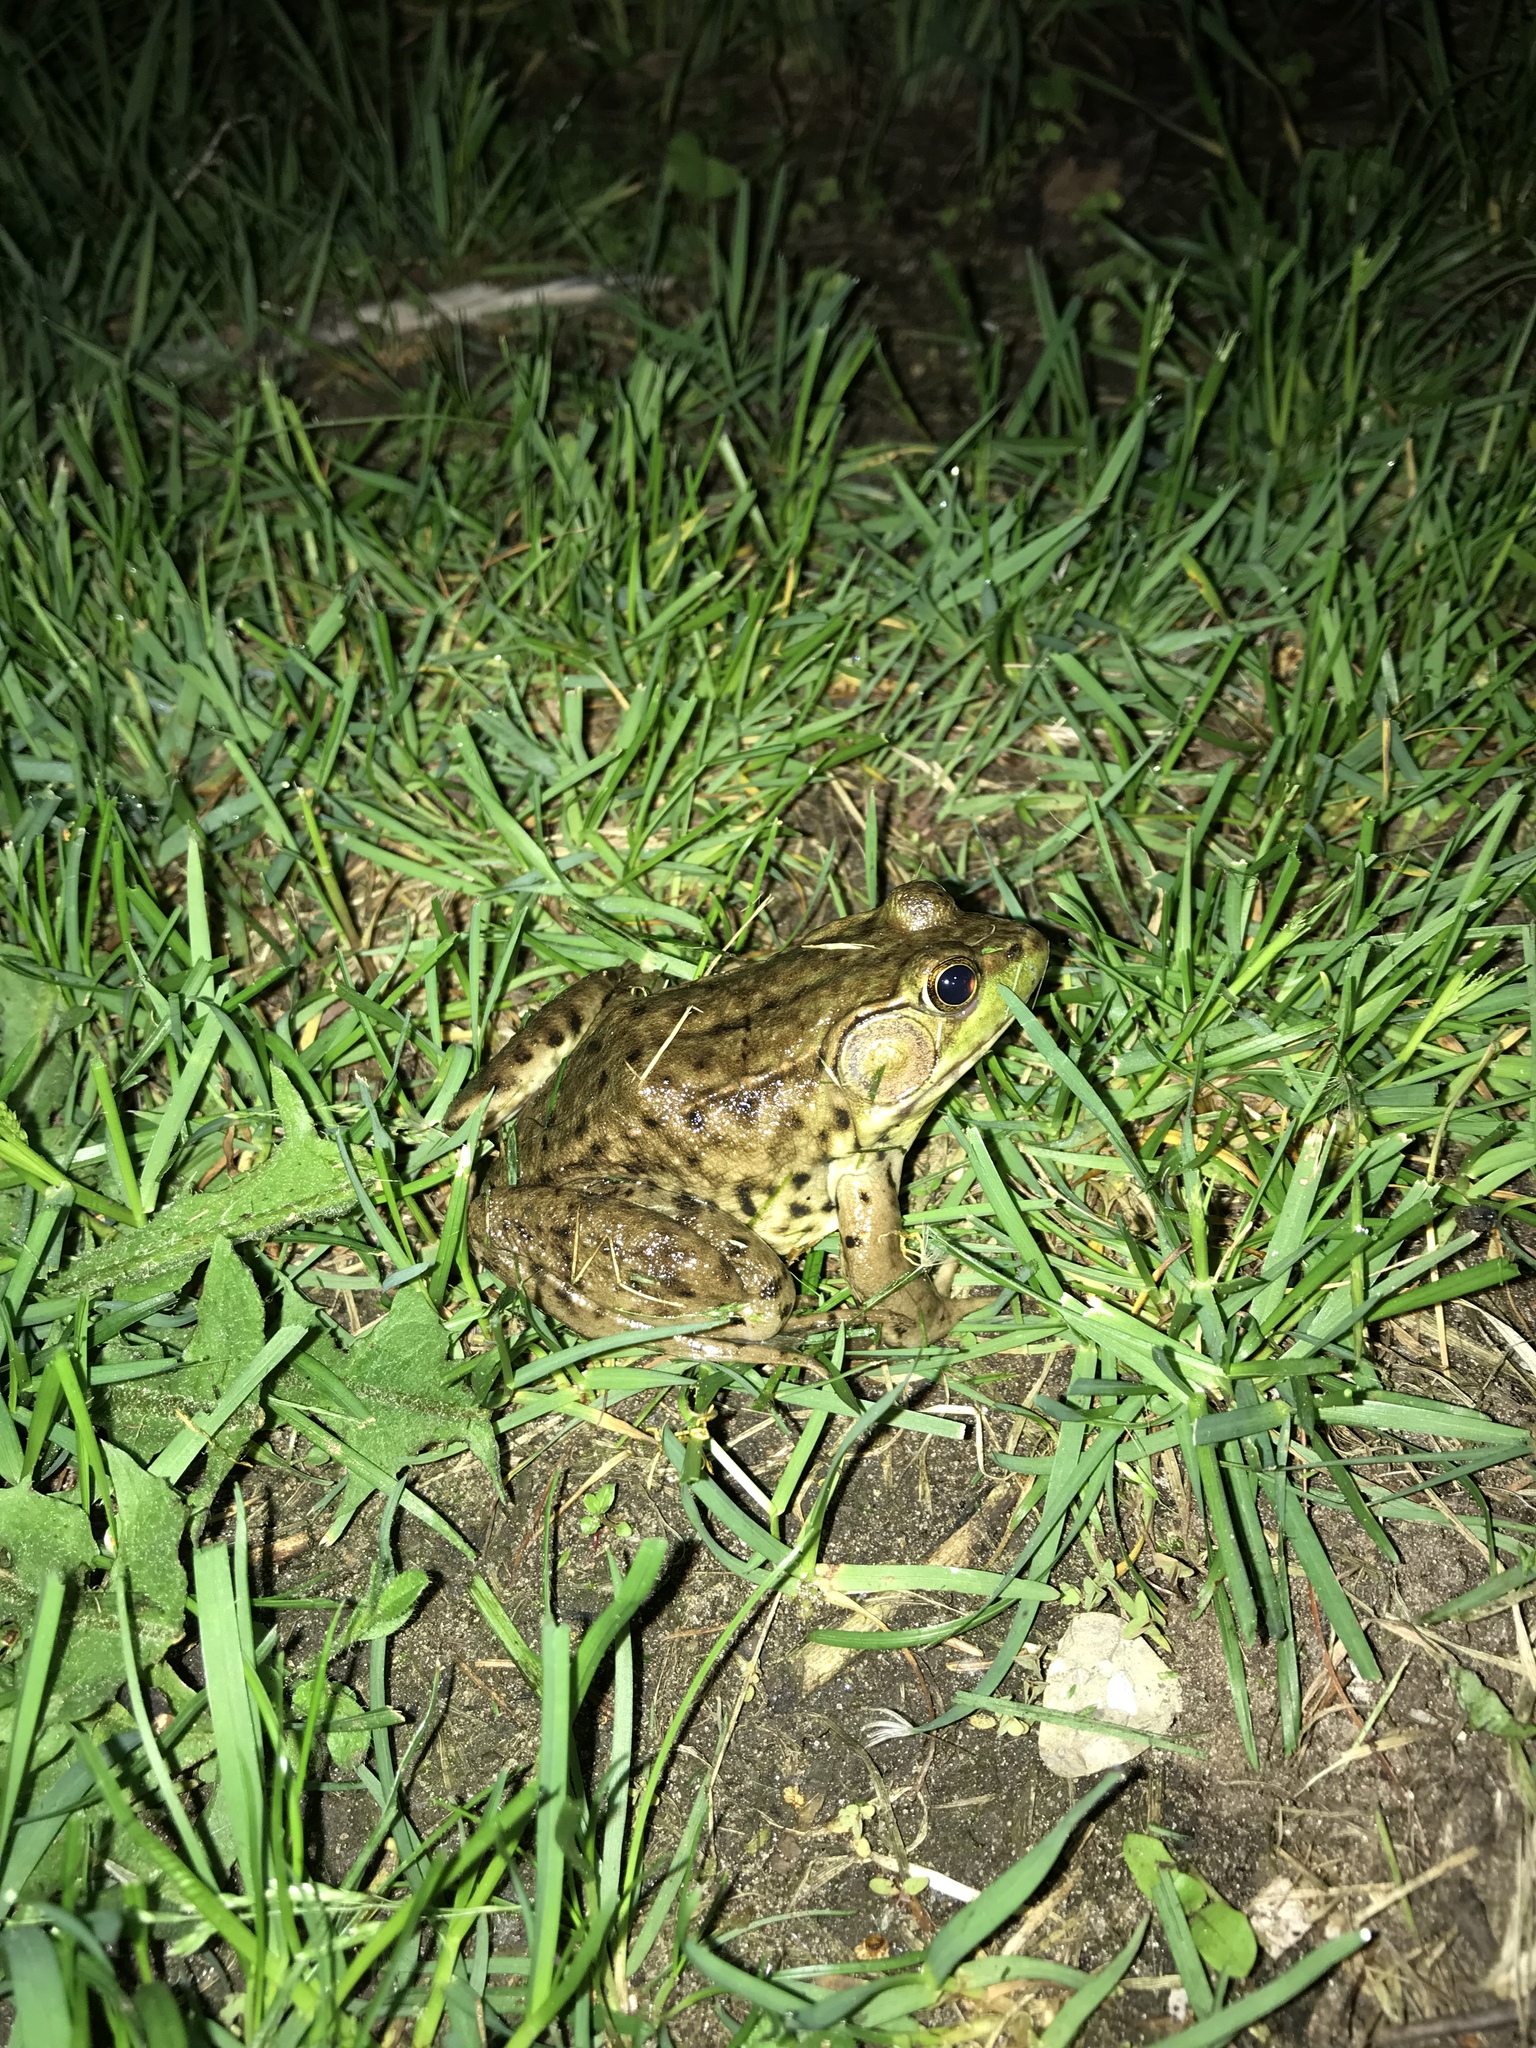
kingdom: Animalia
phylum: Chordata
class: Amphibia
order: Anura
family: Ranidae
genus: Lithobates
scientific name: Lithobates clamitans
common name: Green frog
